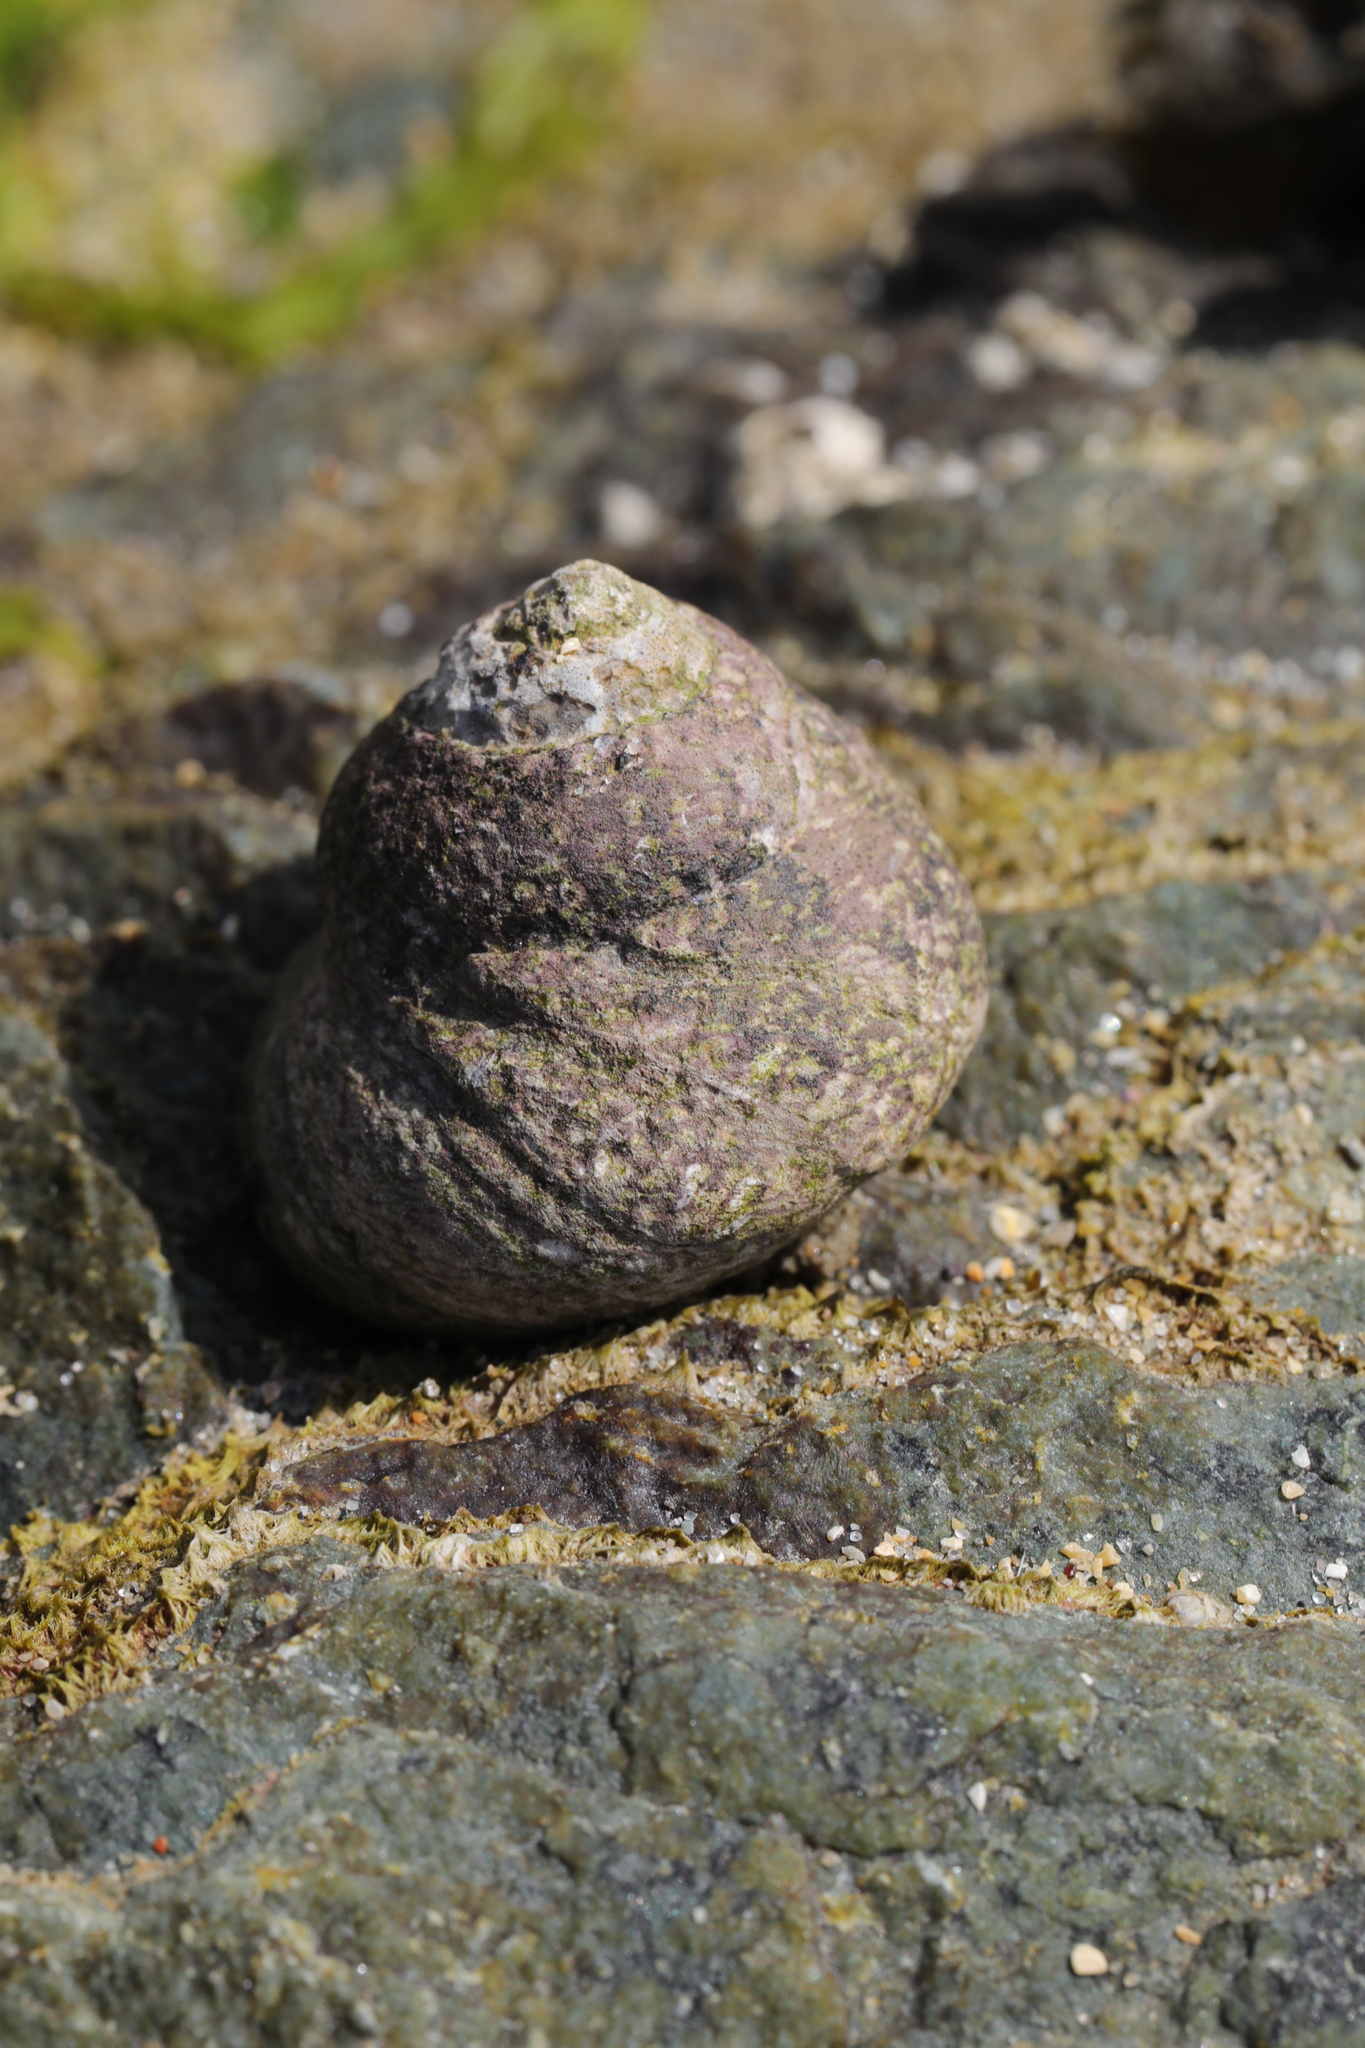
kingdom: Animalia
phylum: Mollusca
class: Gastropoda
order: Trochida
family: Trochidae
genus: Phorcus
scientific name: Phorcus lineatus
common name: Toothed top shell
